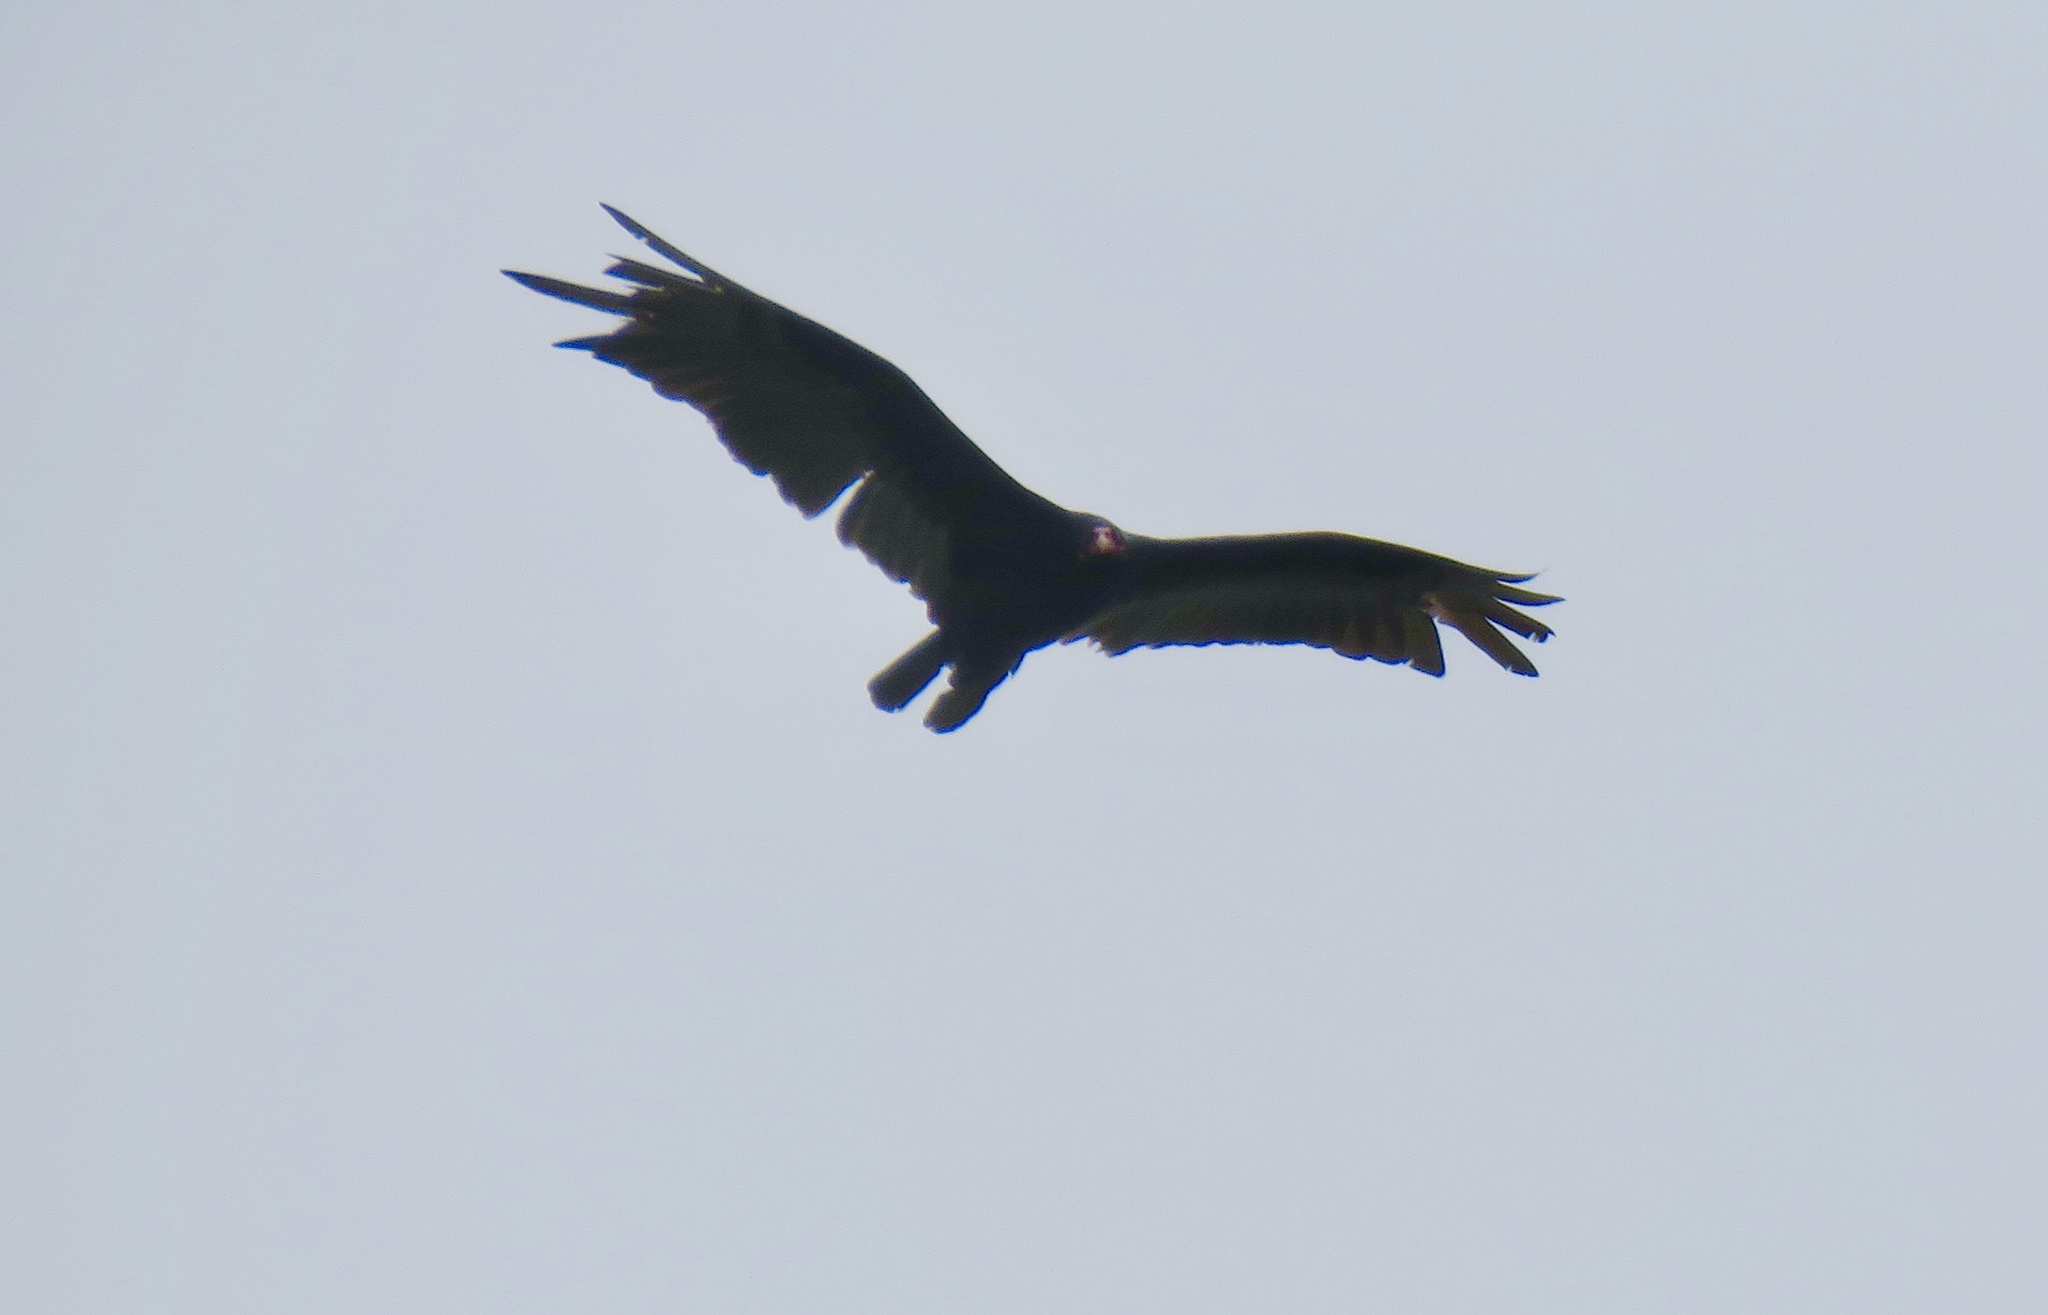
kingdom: Animalia
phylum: Chordata
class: Aves
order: Accipitriformes
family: Cathartidae
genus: Cathartes
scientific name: Cathartes aura
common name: Turkey vulture
